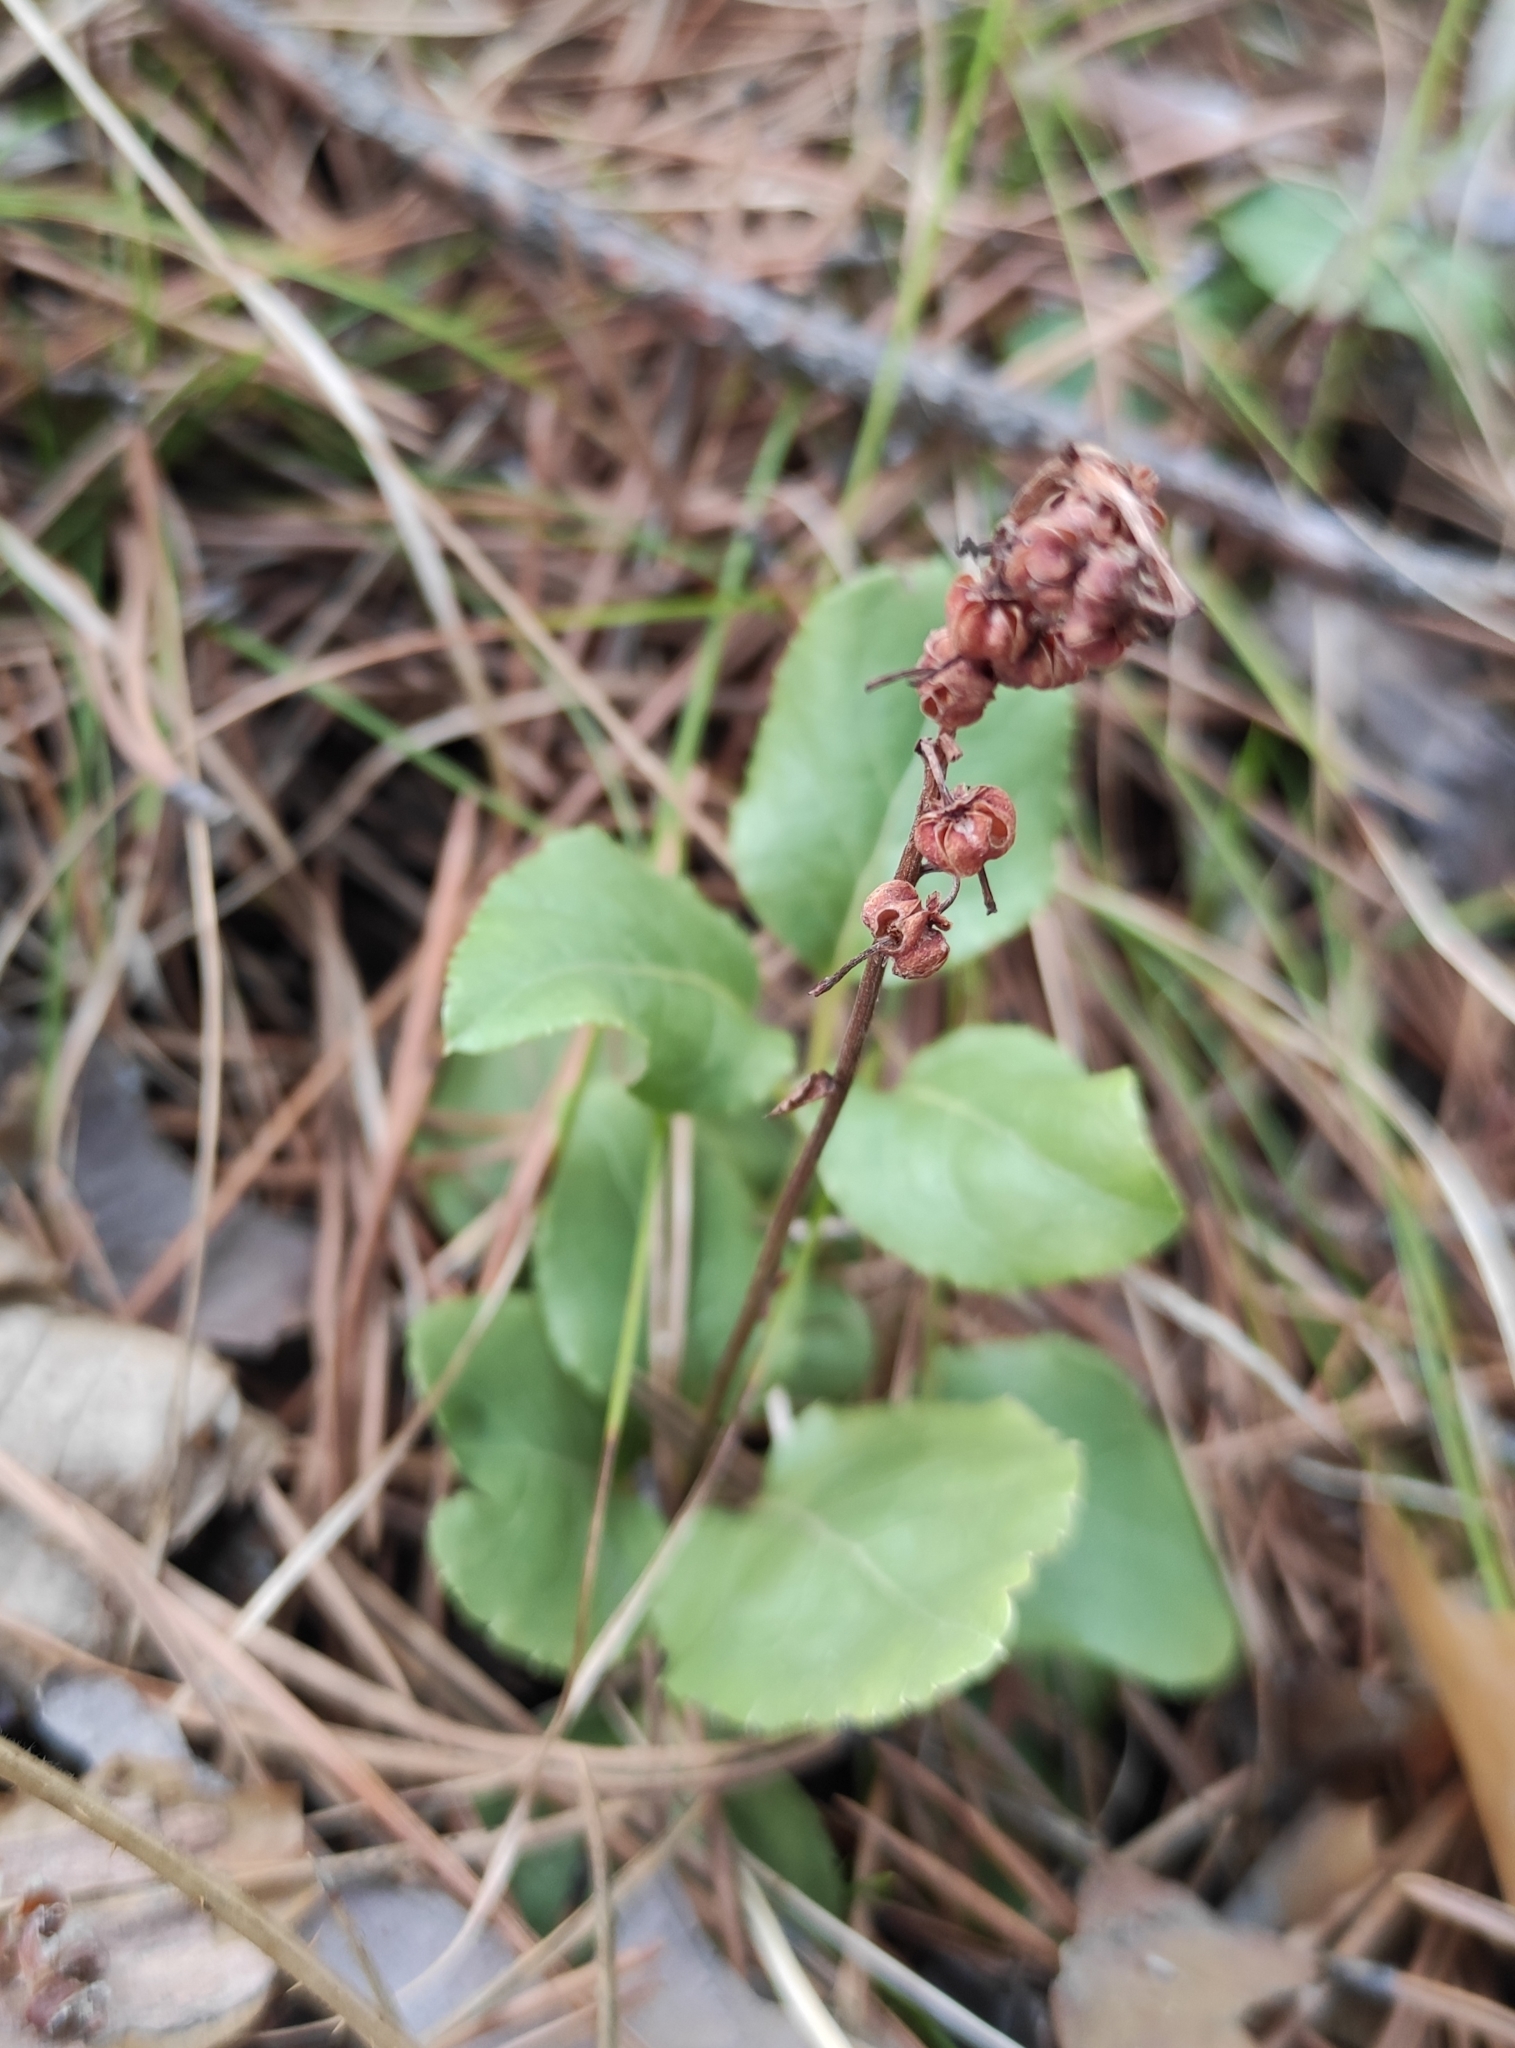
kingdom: Plantae
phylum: Tracheophyta
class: Magnoliopsida
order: Ericales
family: Ericaceae
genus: Orthilia
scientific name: Orthilia secunda
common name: One-sided orthilia
